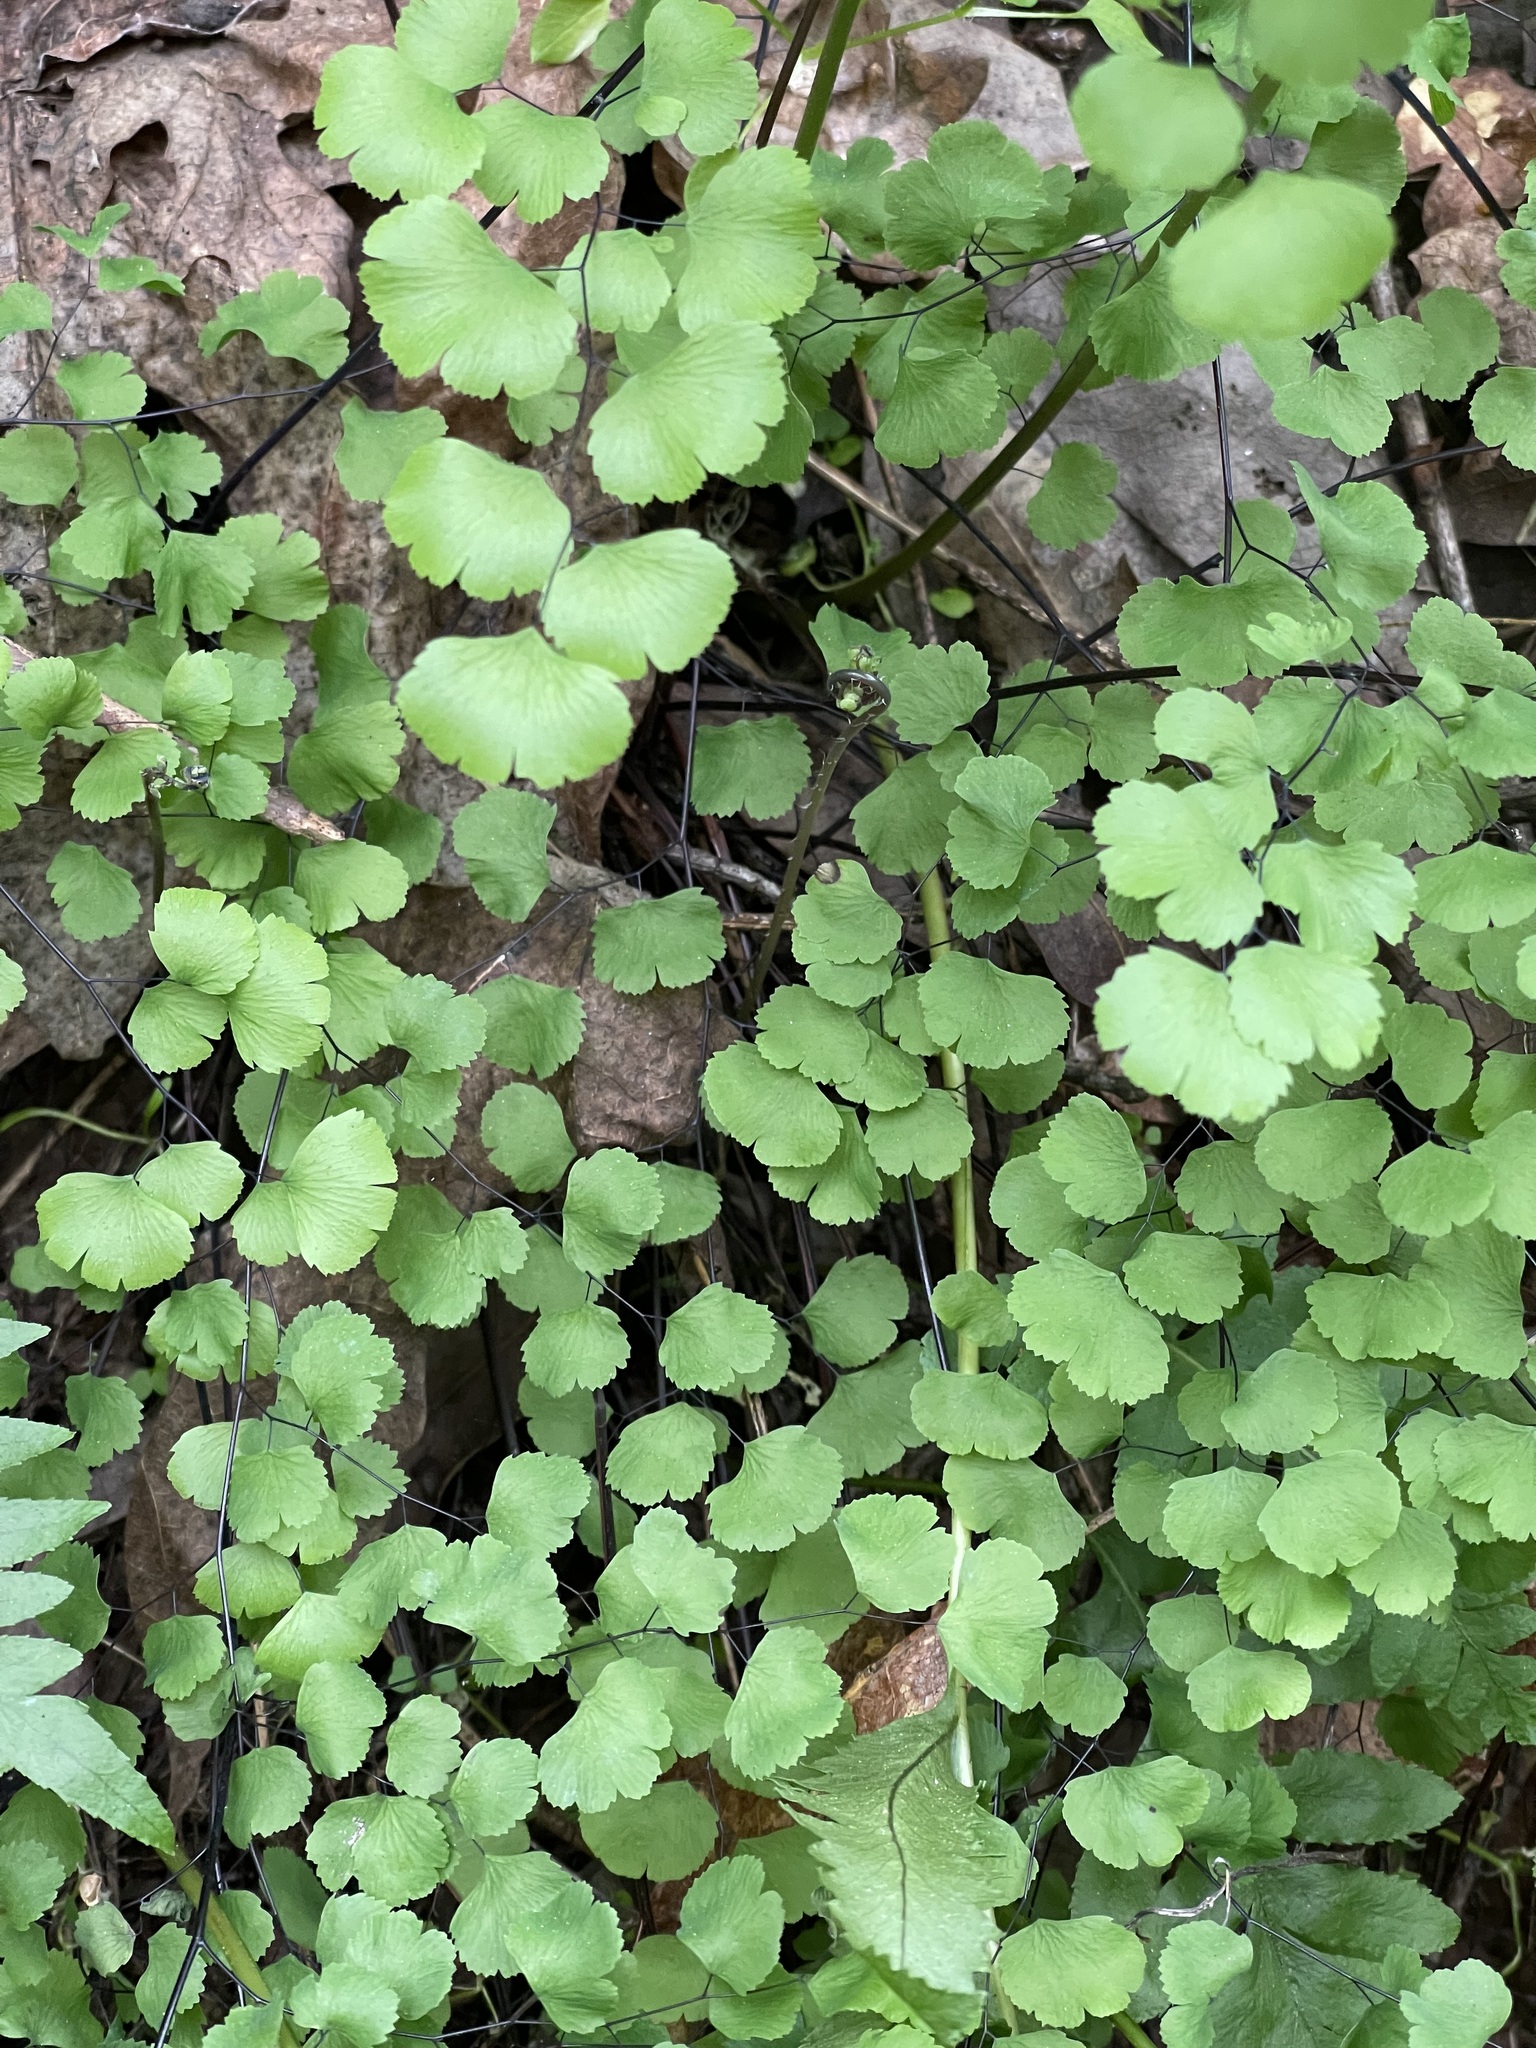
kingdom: Plantae
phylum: Tracheophyta
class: Polypodiopsida
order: Polypodiales
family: Pteridaceae
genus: Adiantum
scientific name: Adiantum jordanii
